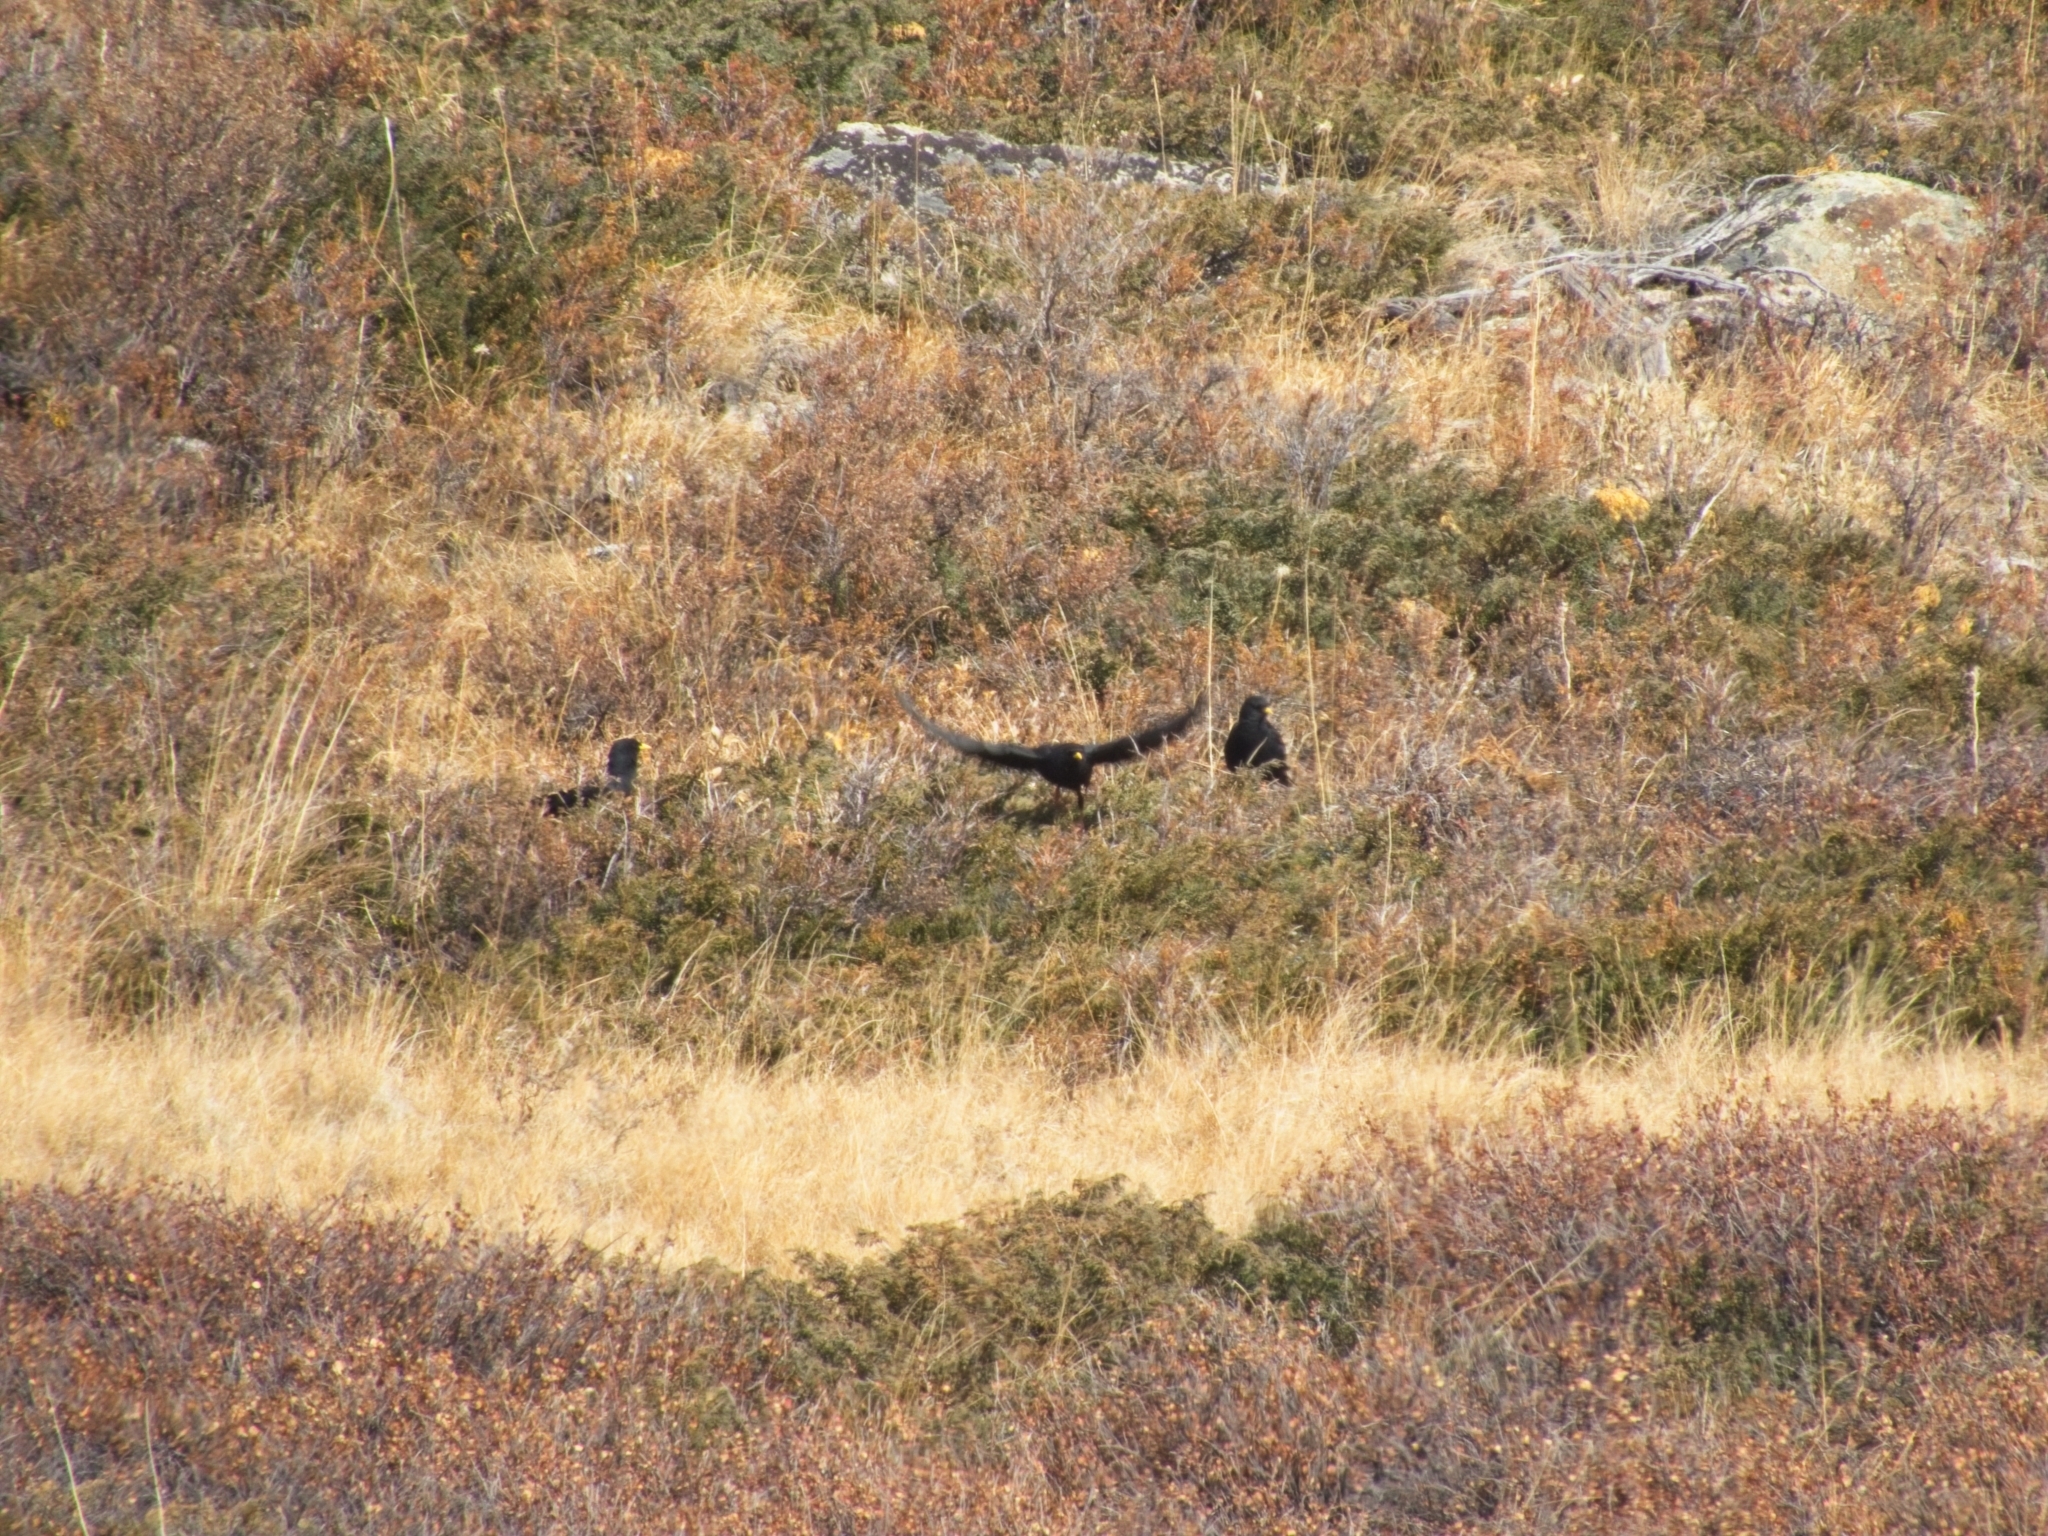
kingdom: Animalia
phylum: Chordata
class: Aves
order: Passeriformes
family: Corvidae
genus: Pyrrhocorax
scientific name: Pyrrhocorax graculus
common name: Alpine chough
